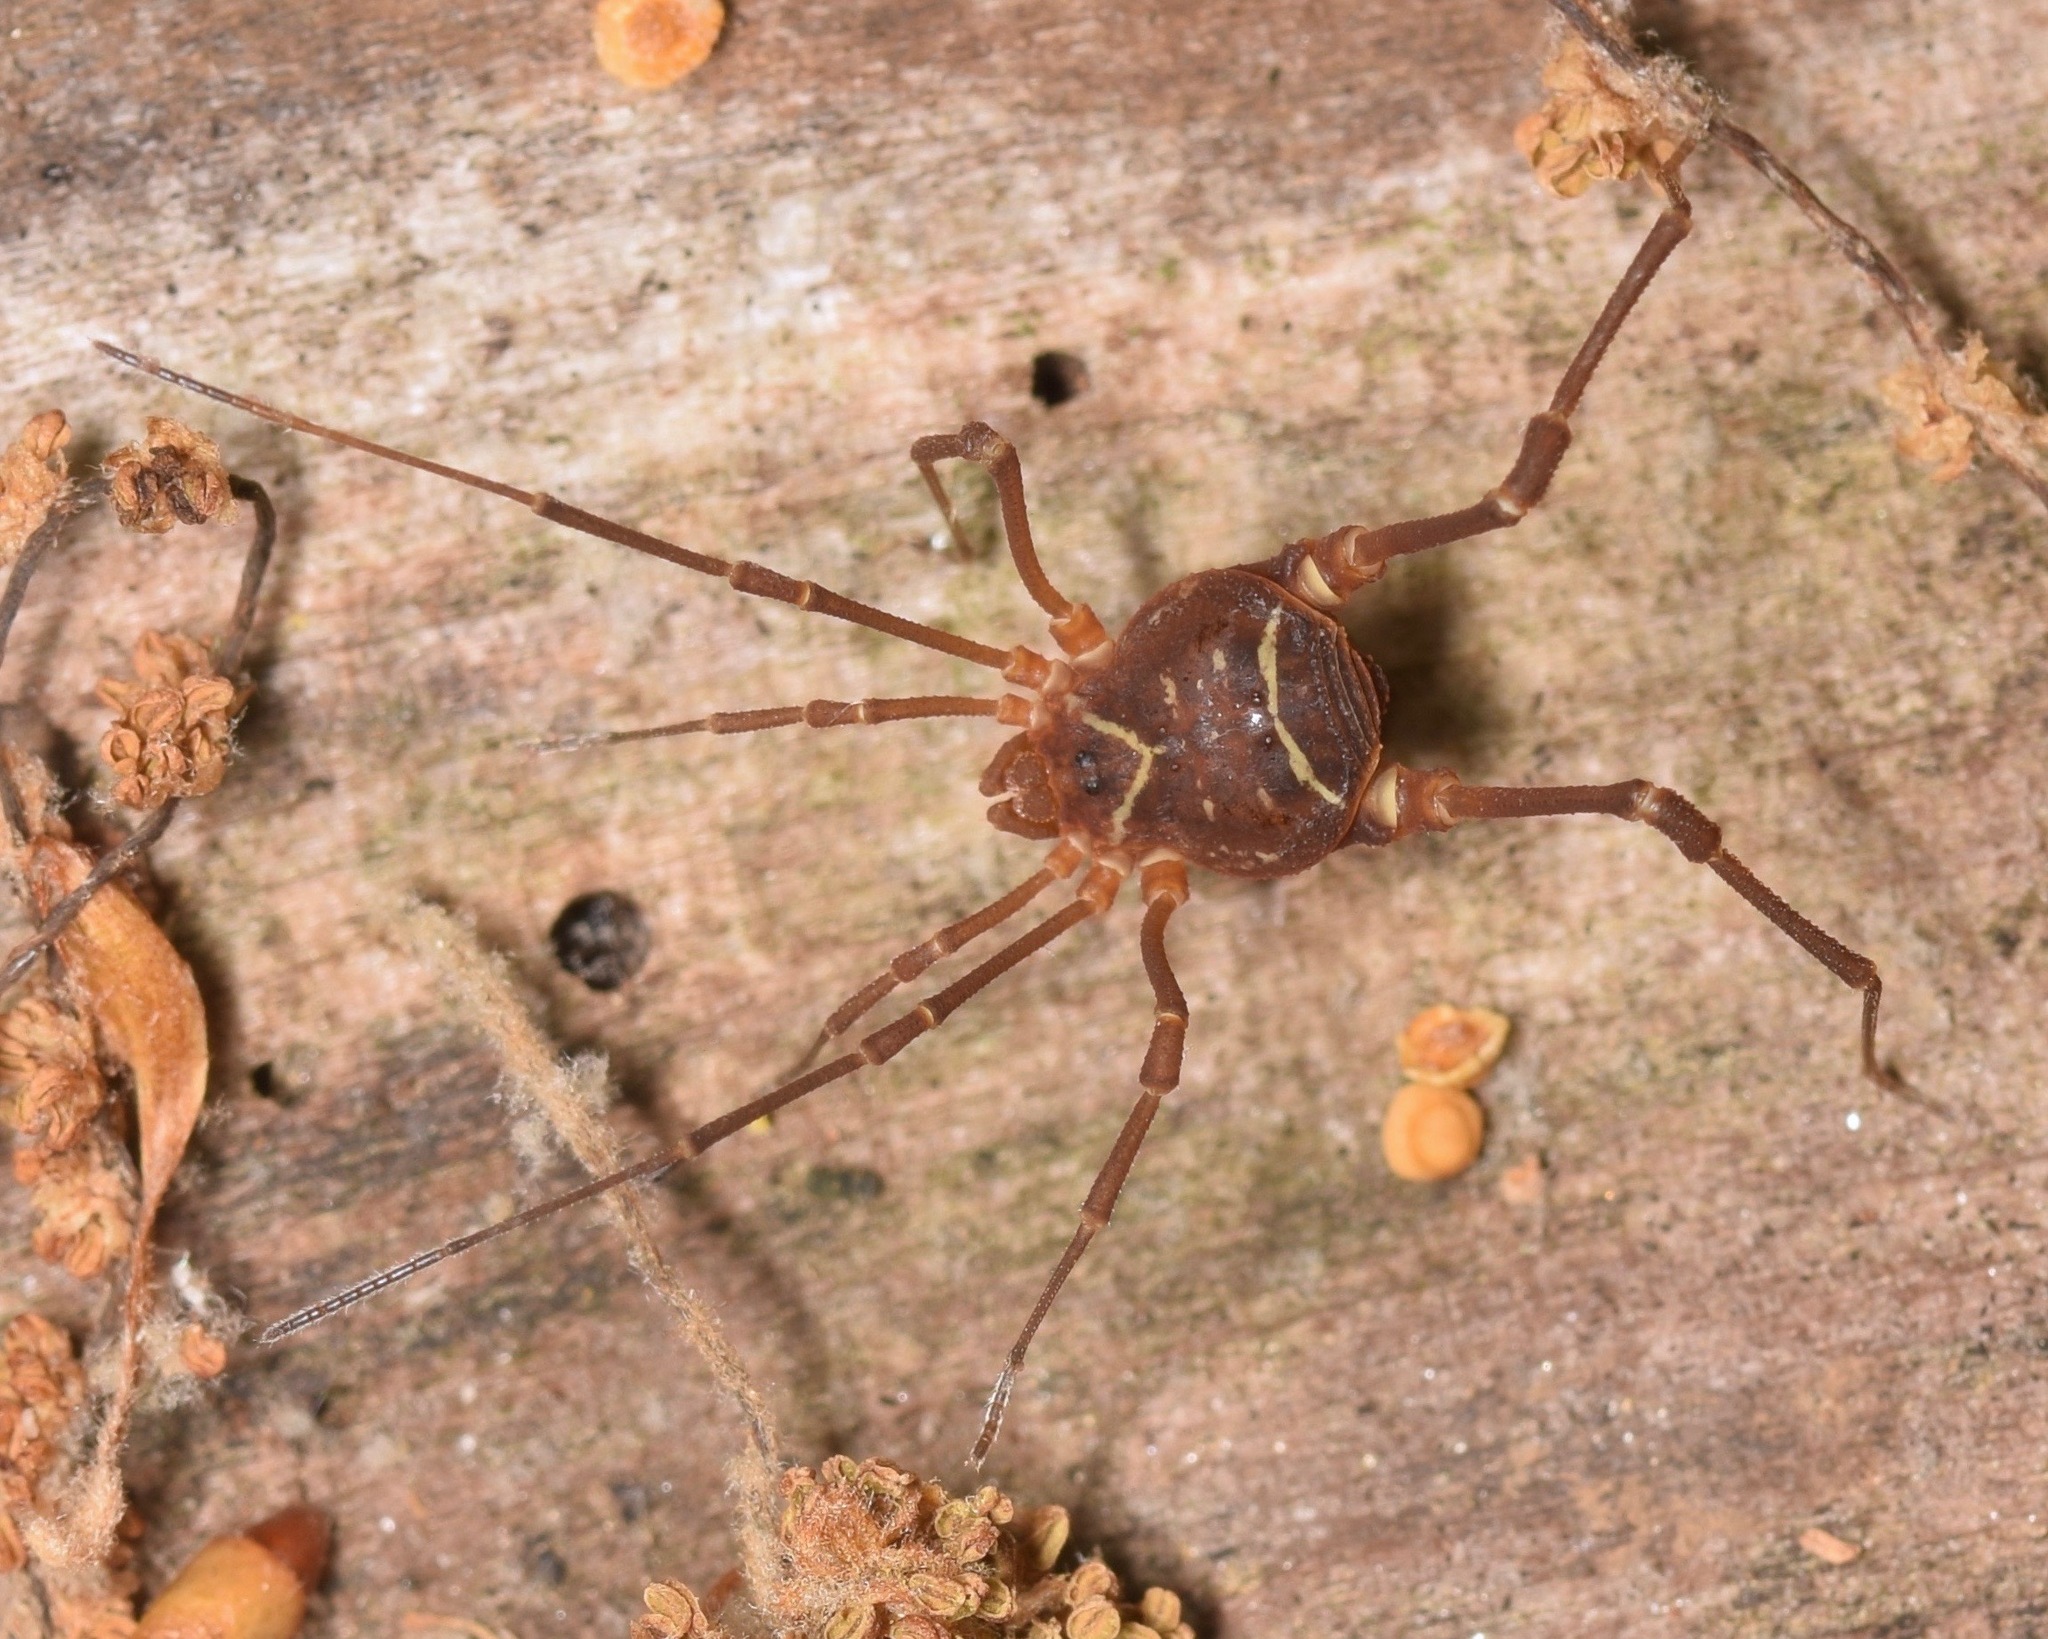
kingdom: Animalia
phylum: Arthropoda
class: Arachnida
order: Opiliones
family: Cosmetidae
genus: Libitioides
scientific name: Libitioides sayi
